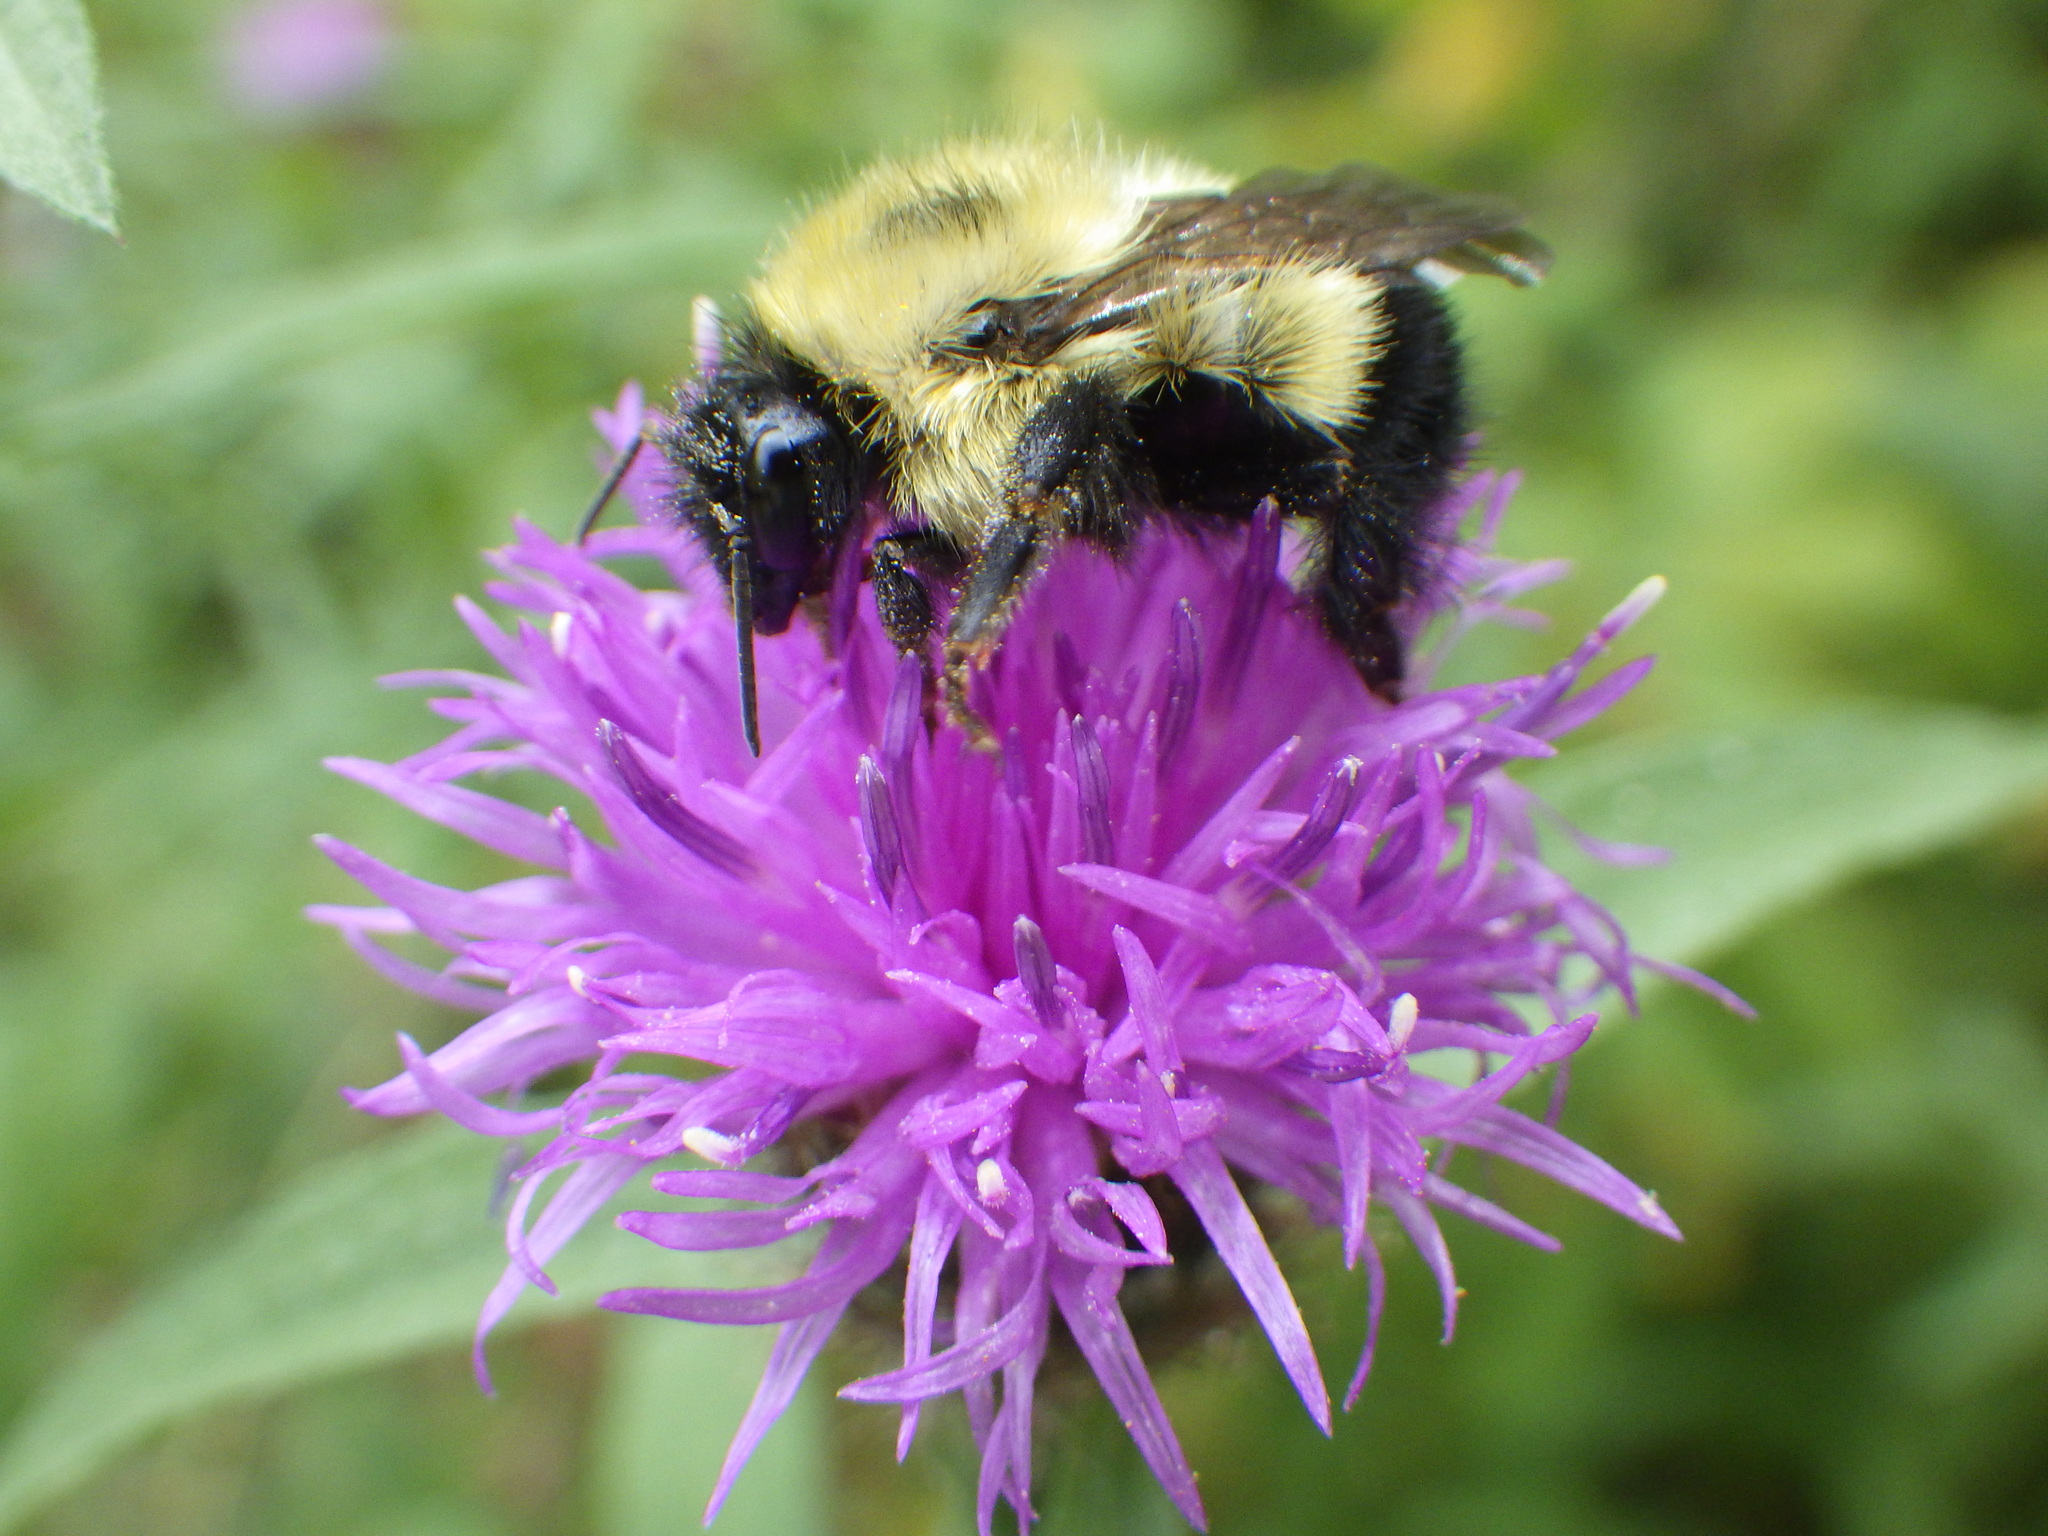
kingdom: Animalia
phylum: Arthropoda
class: Insecta
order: Hymenoptera
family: Apidae
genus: Bombus
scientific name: Bombus vagans
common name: Half-black bumble bee
